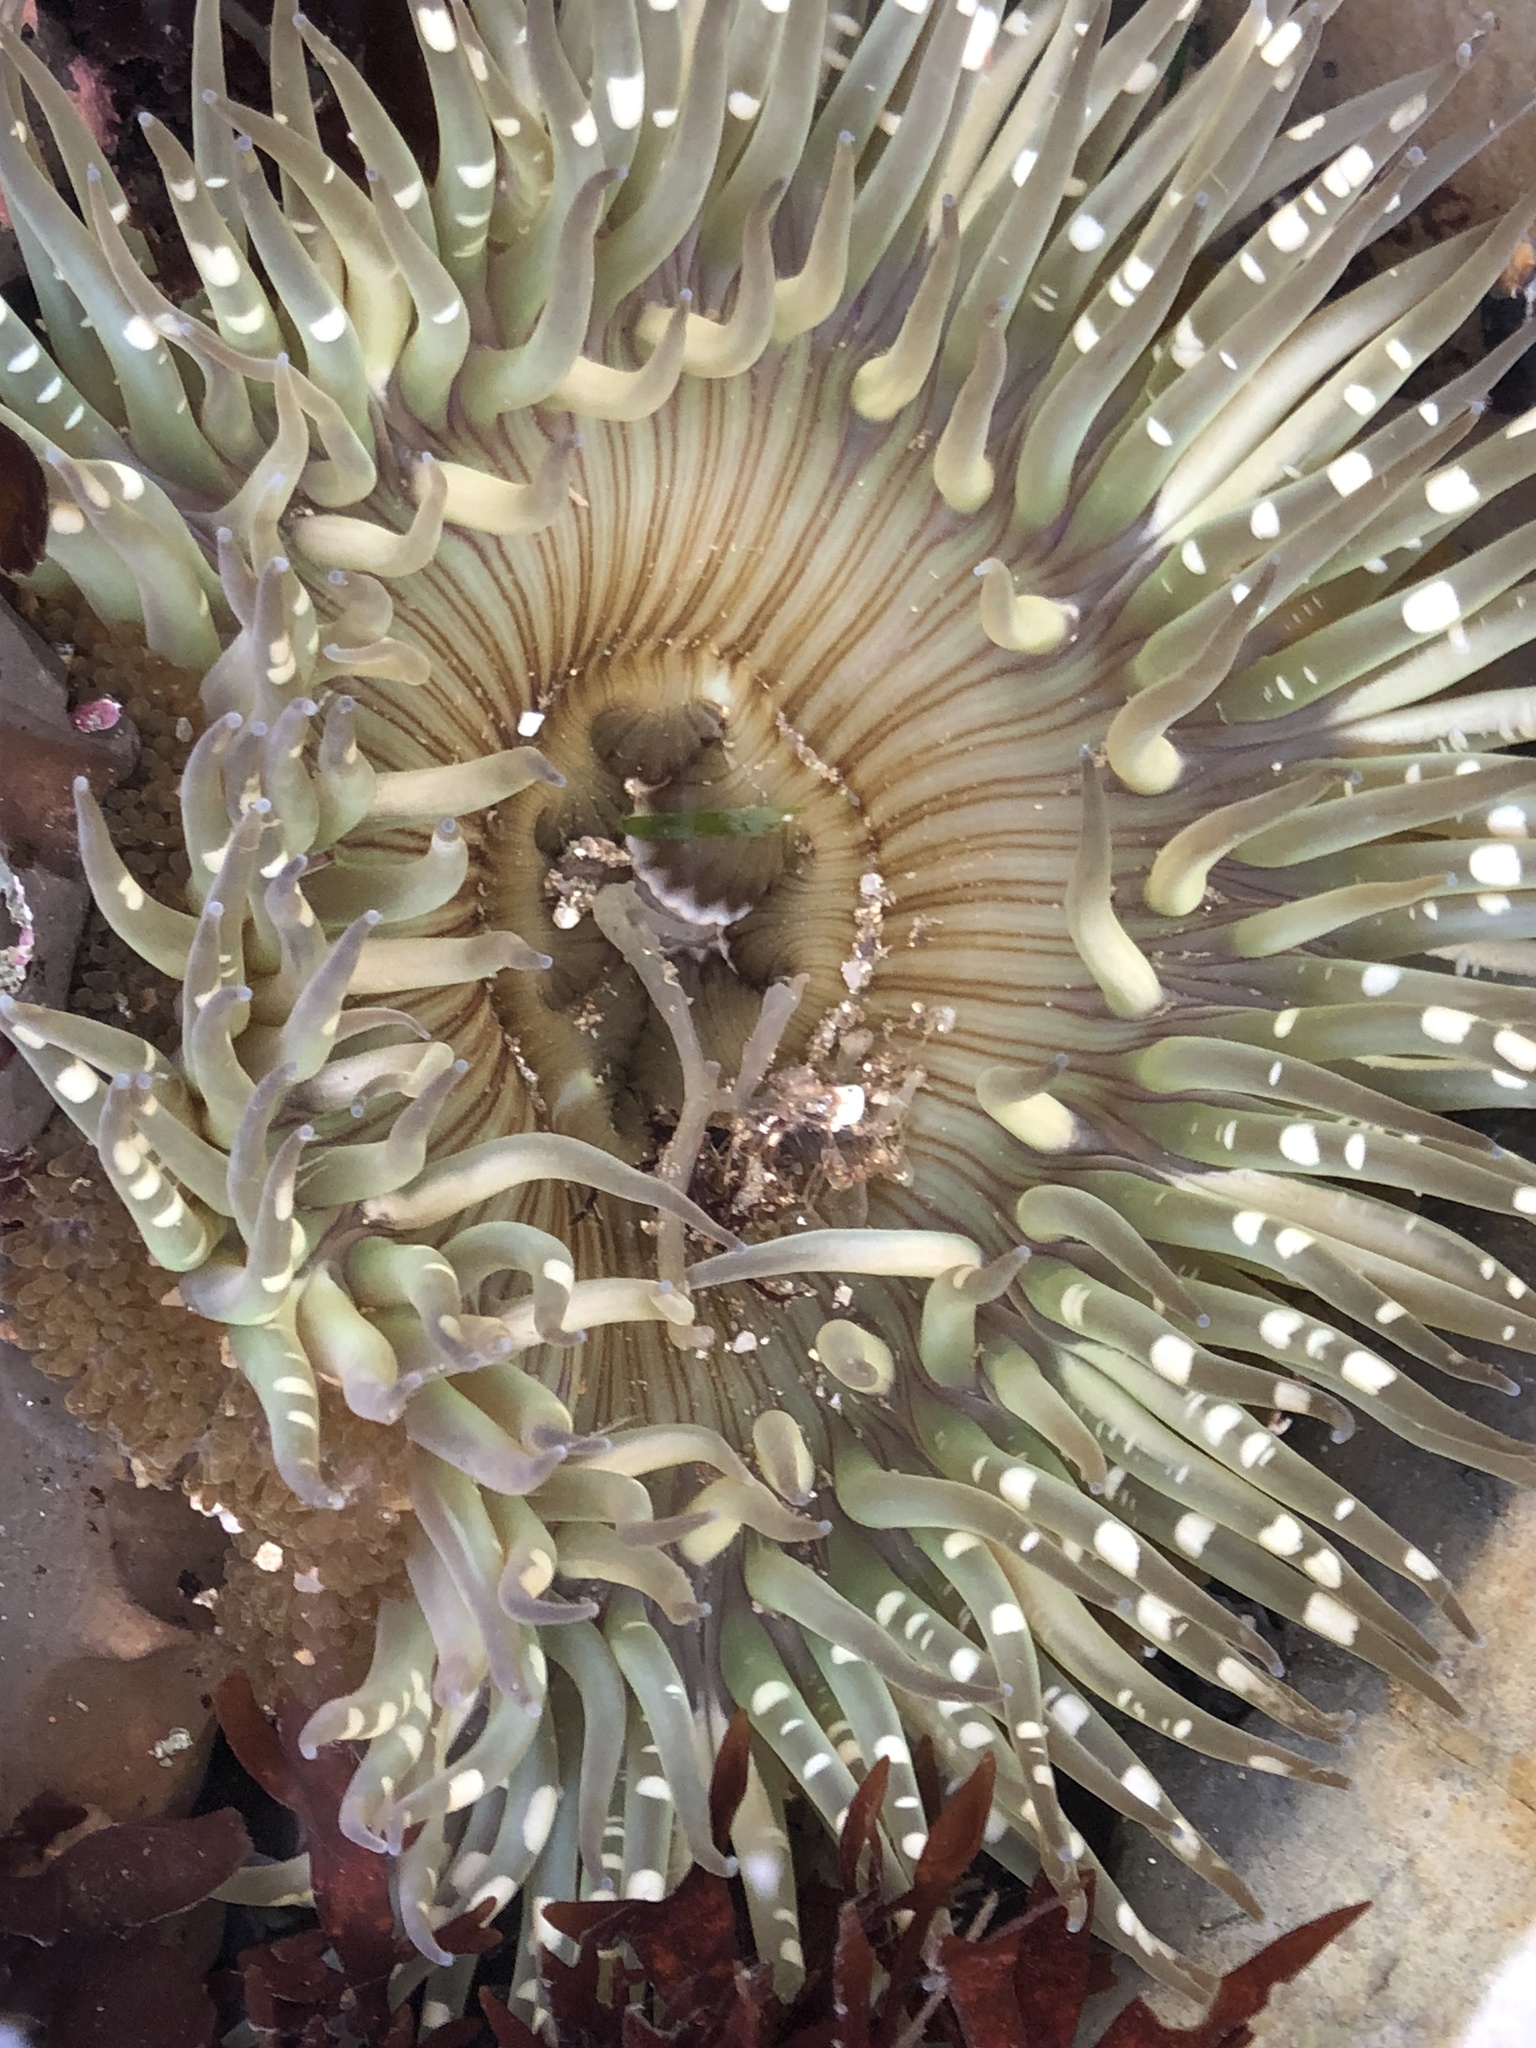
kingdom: Animalia
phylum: Cnidaria
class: Anthozoa
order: Actiniaria
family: Actiniidae
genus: Anthopleura
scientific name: Anthopleura sola
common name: Sun anemone
